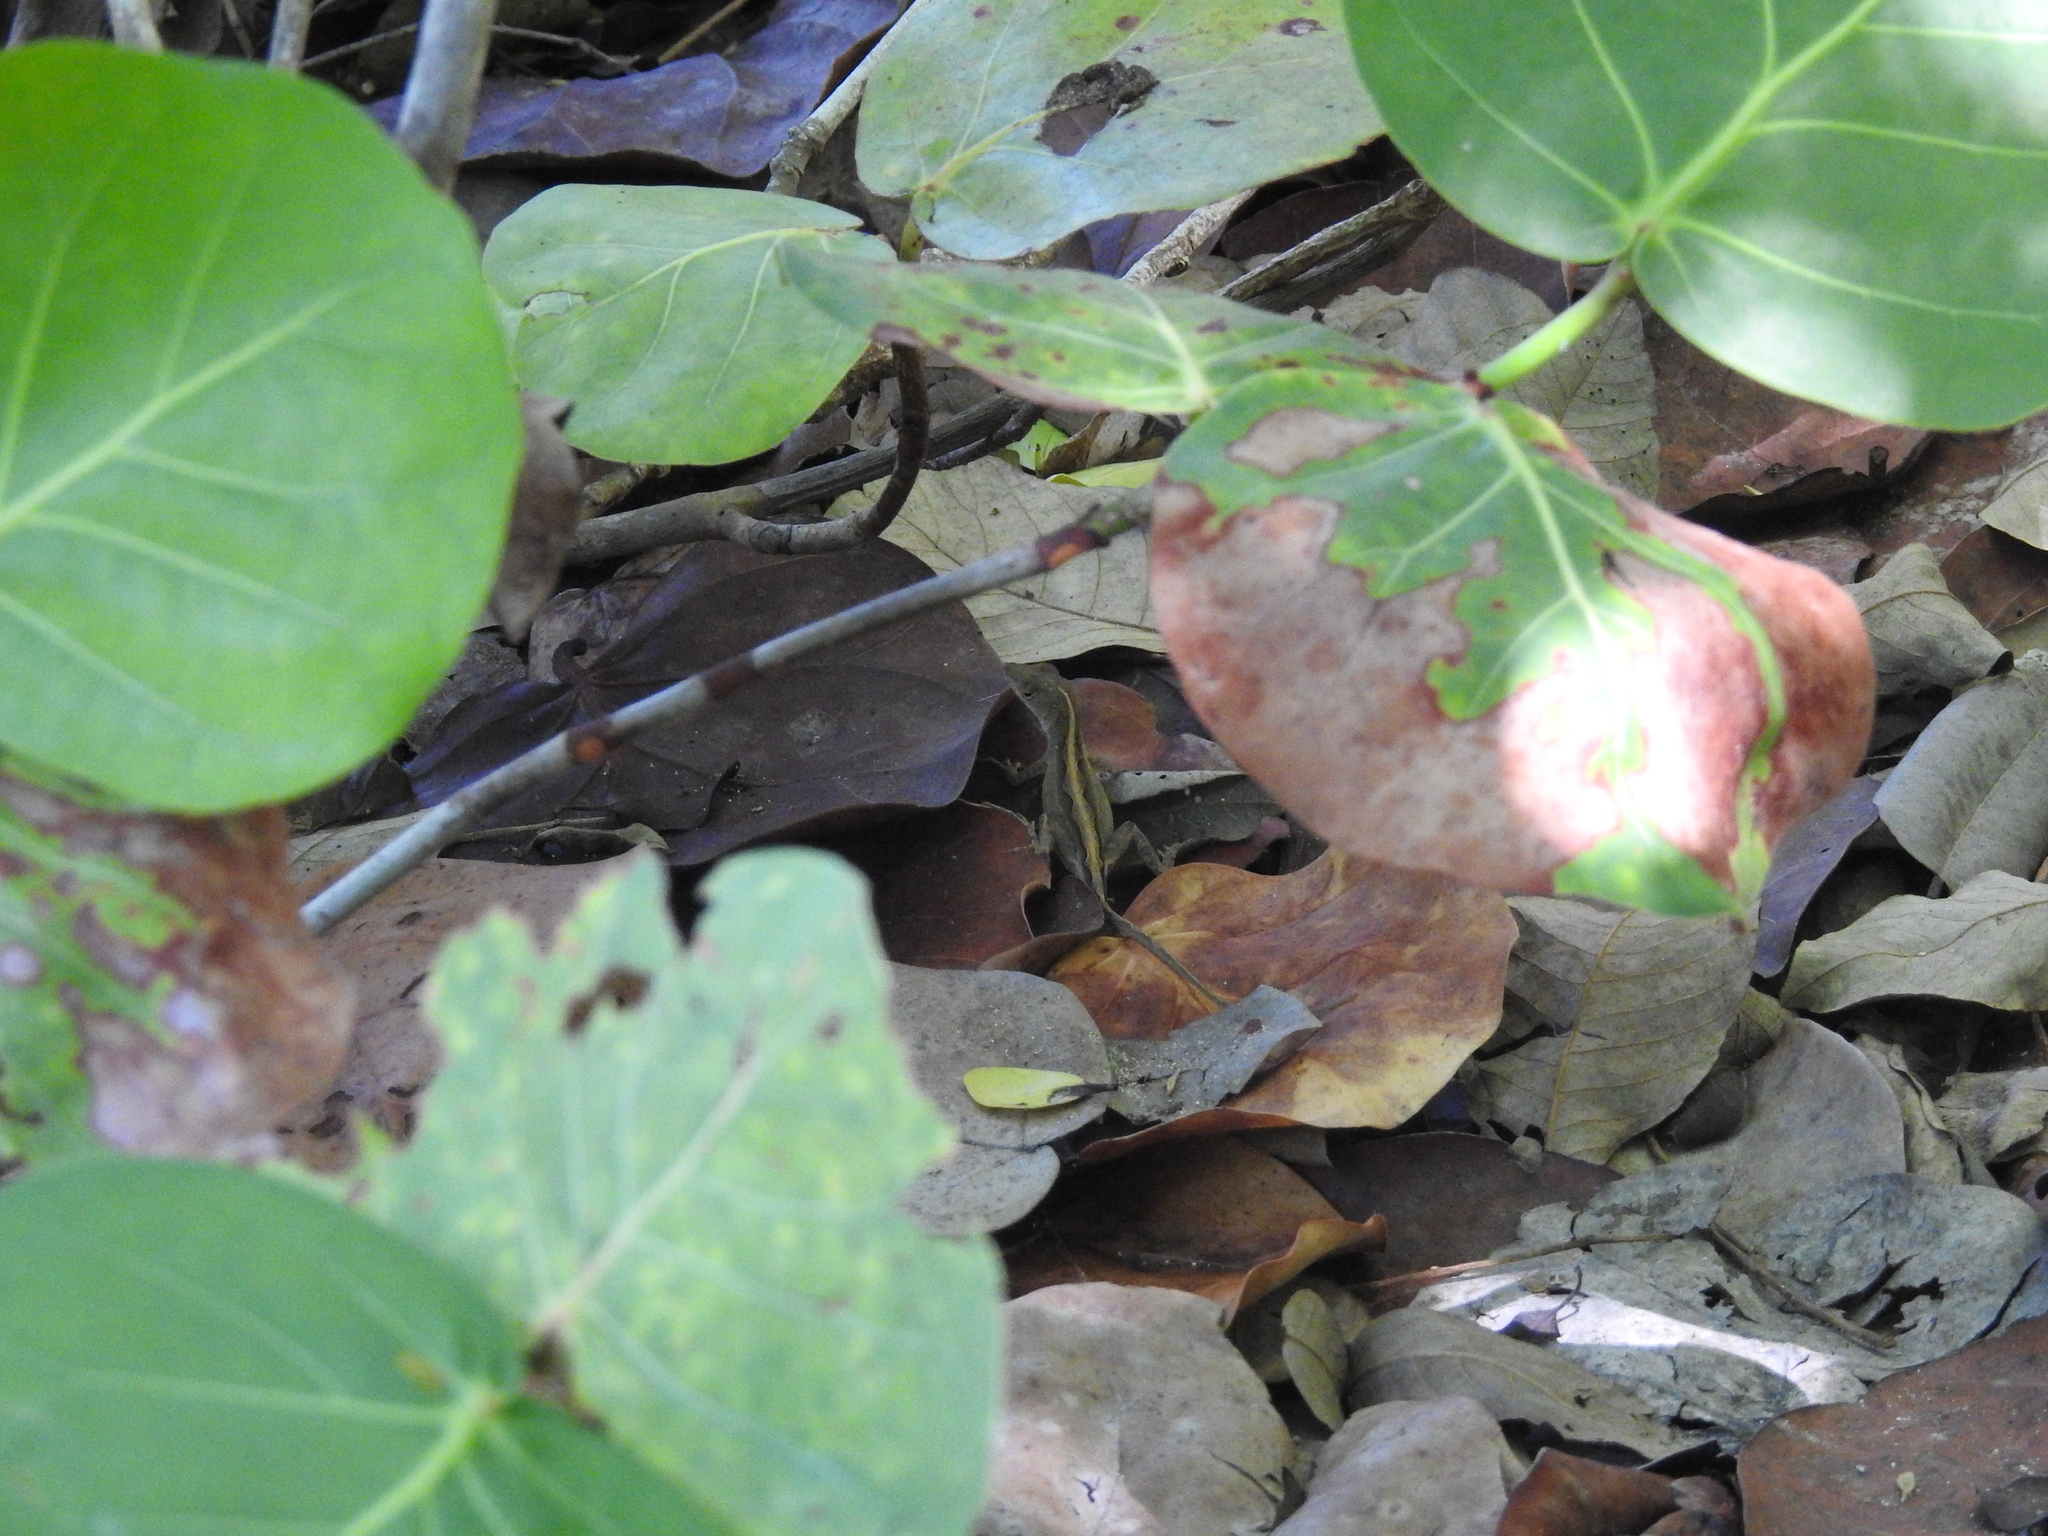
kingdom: Animalia
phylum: Chordata
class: Squamata
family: Dactyloidae
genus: Anolis
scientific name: Anolis sagrei
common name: Brown anole
